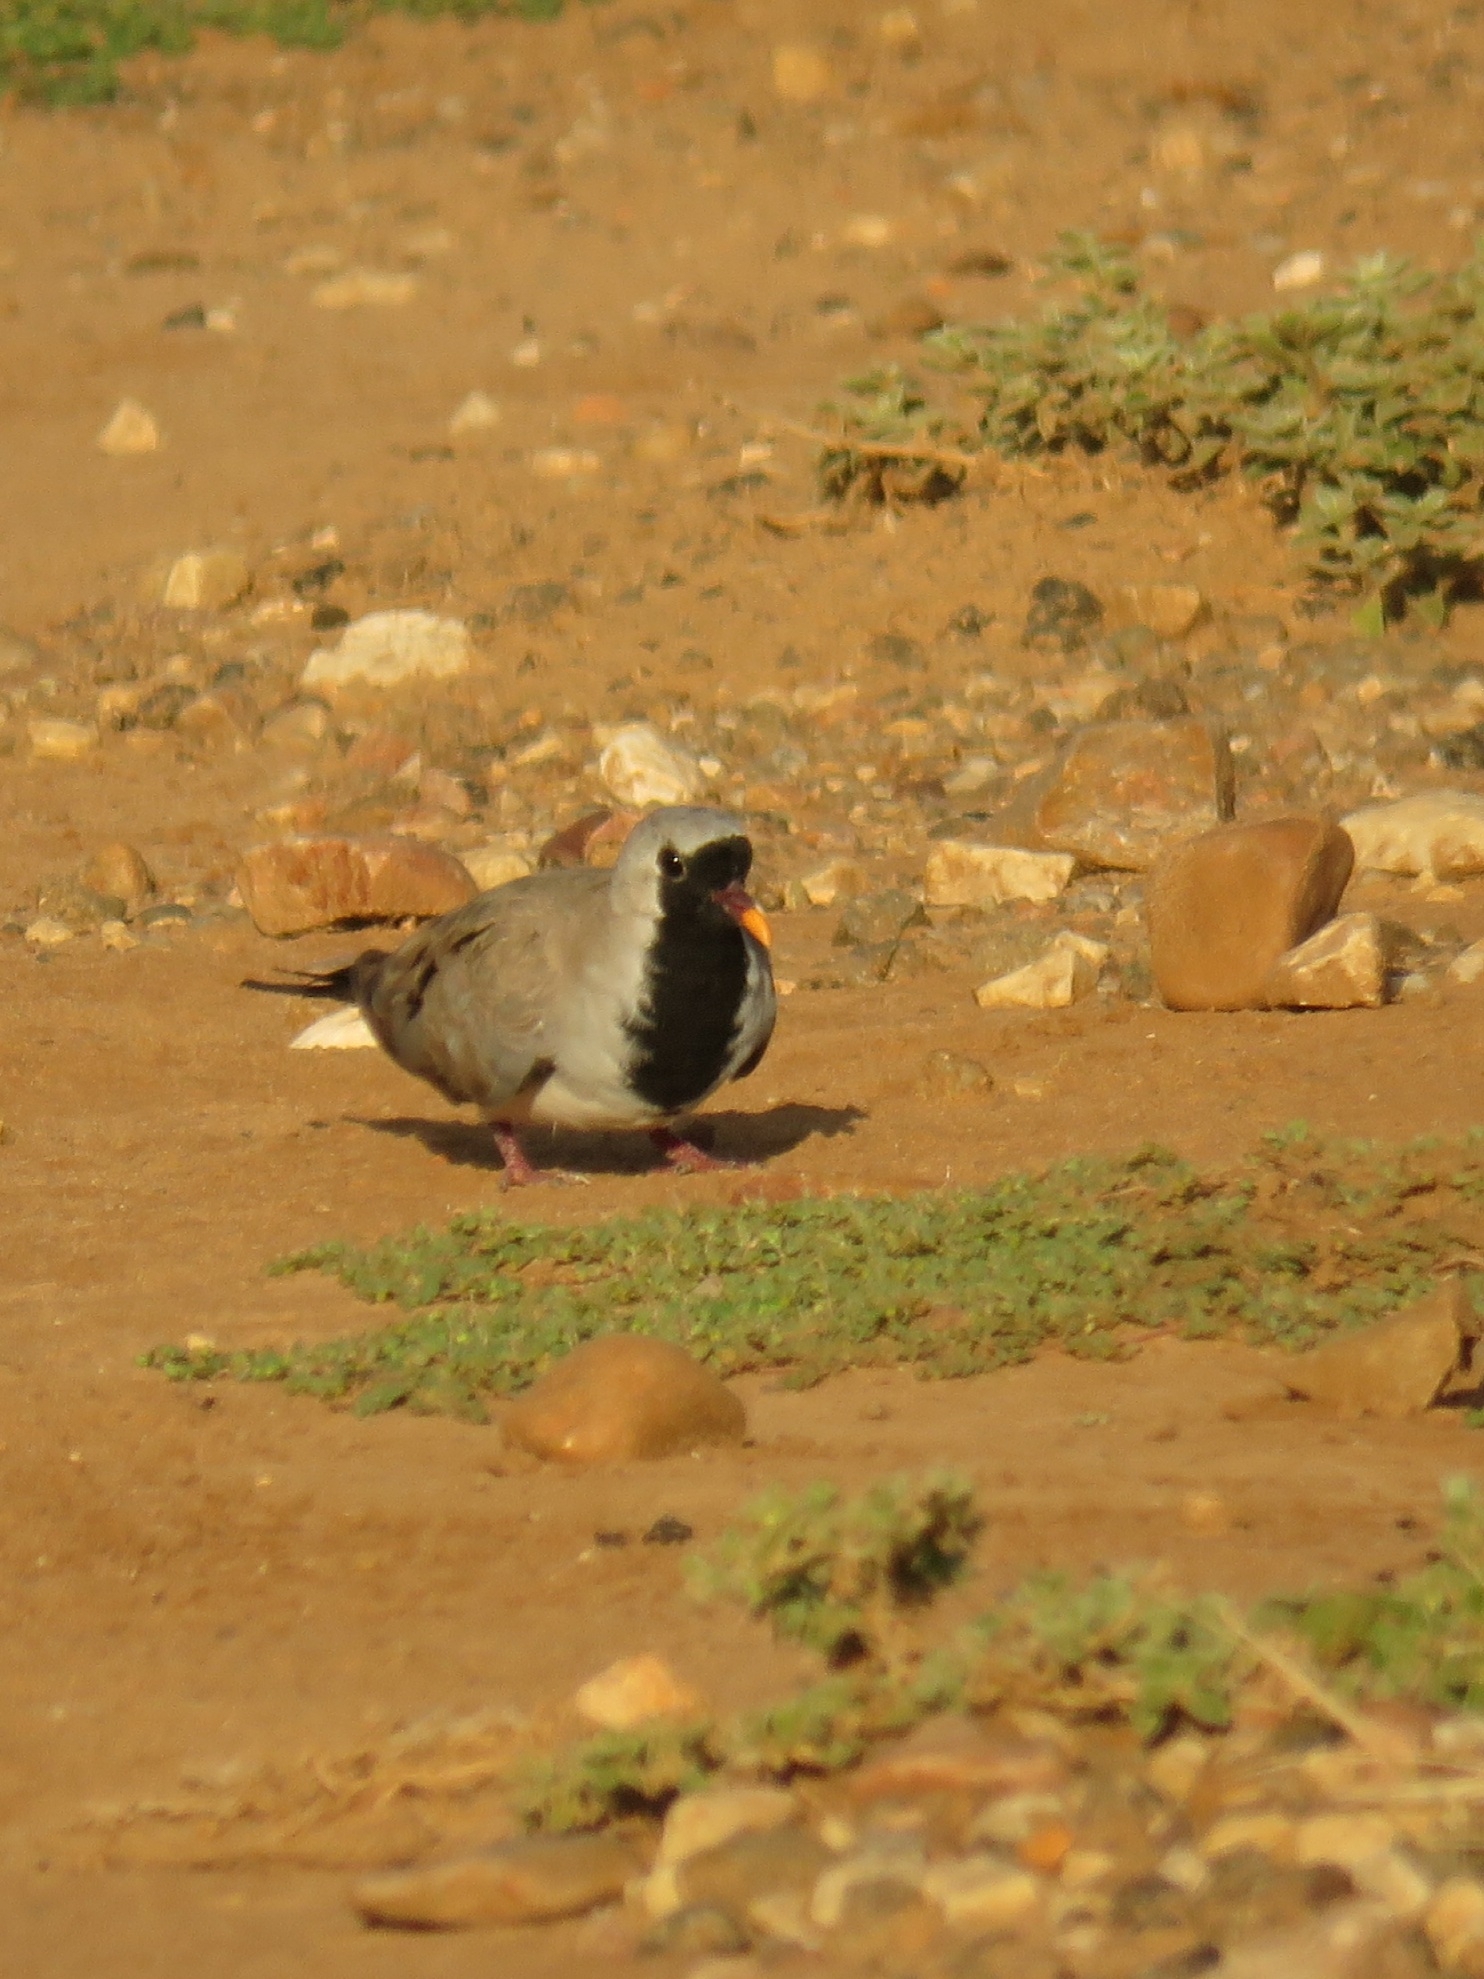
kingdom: Animalia
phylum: Chordata
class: Aves
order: Columbiformes
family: Columbidae
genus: Oena
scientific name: Oena capensis
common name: Namaqua dove
